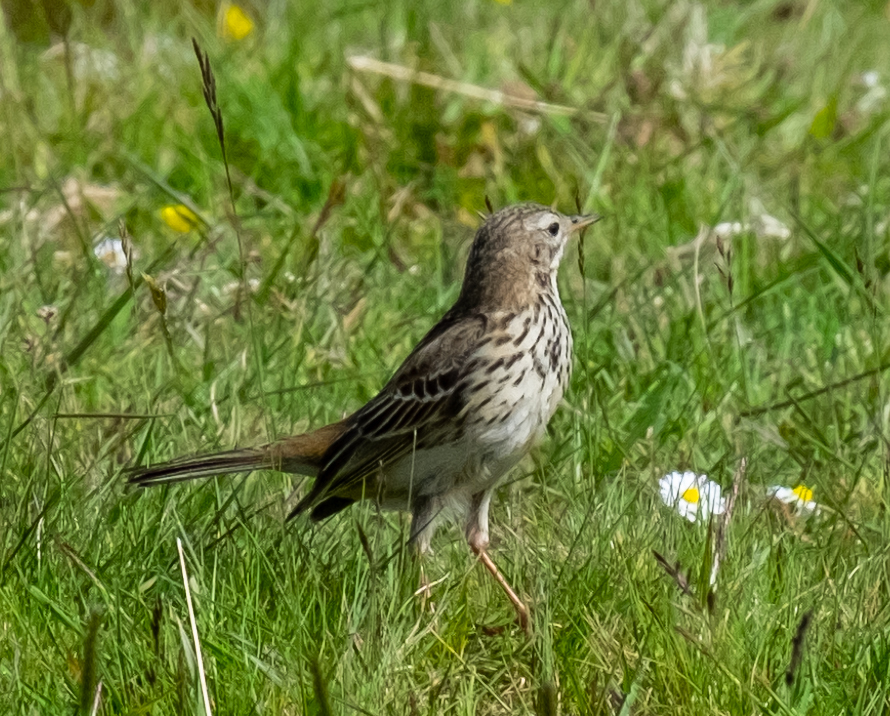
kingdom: Animalia
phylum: Chordata
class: Aves
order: Passeriformes
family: Motacillidae
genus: Anthus
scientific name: Anthus pratensis
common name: Meadow pipit
